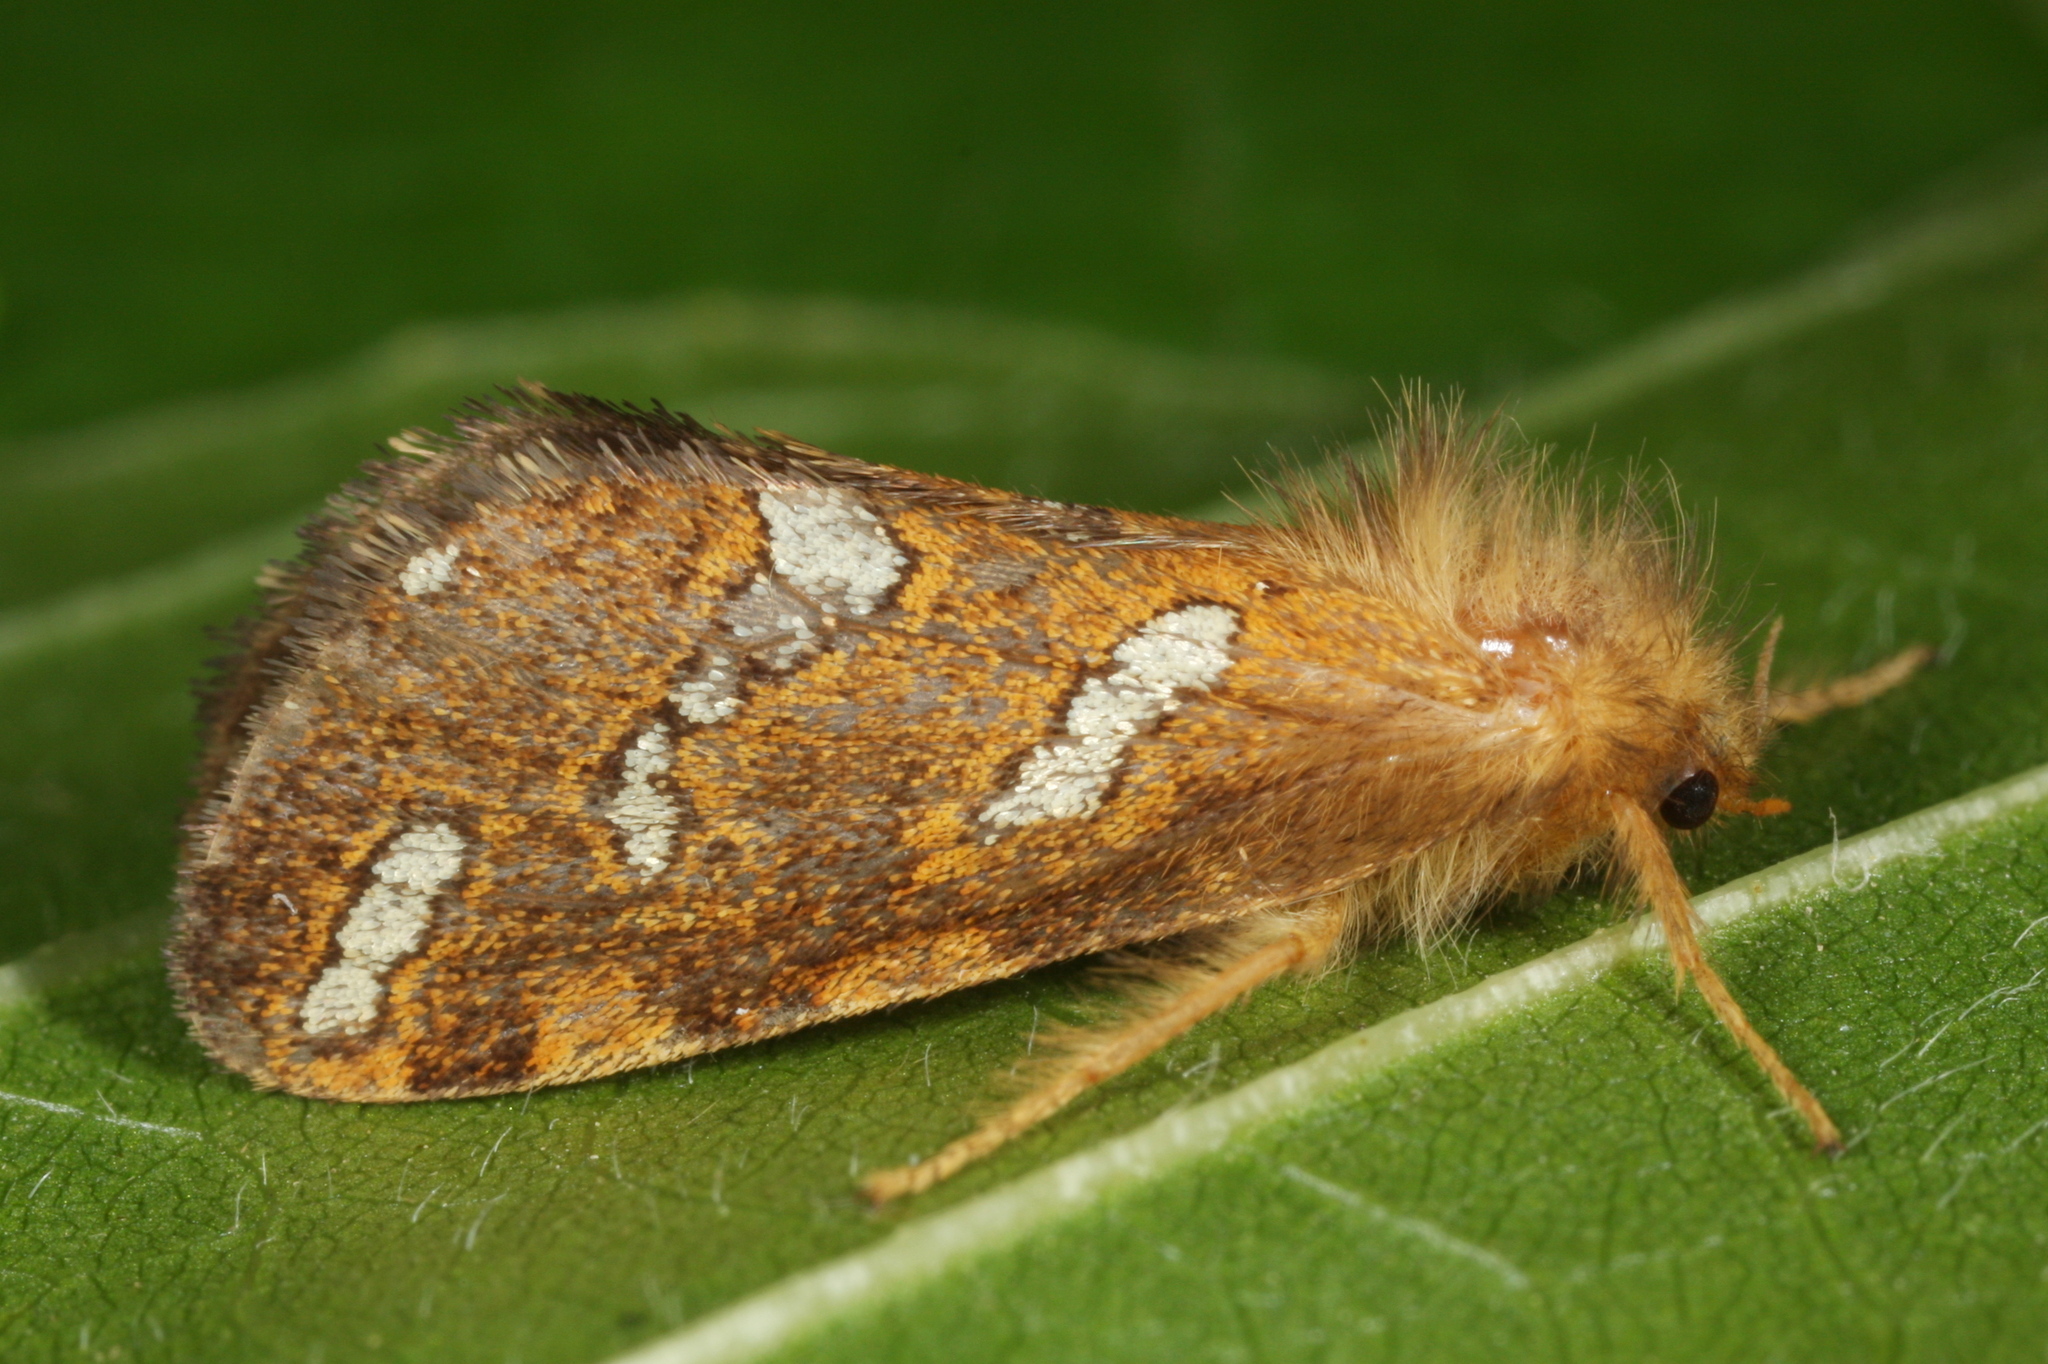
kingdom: Animalia
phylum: Arthropoda
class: Insecta
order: Lepidoptera
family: Hepialidae
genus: Phymatopus
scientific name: Phymatopus hecta
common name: Gold swift
